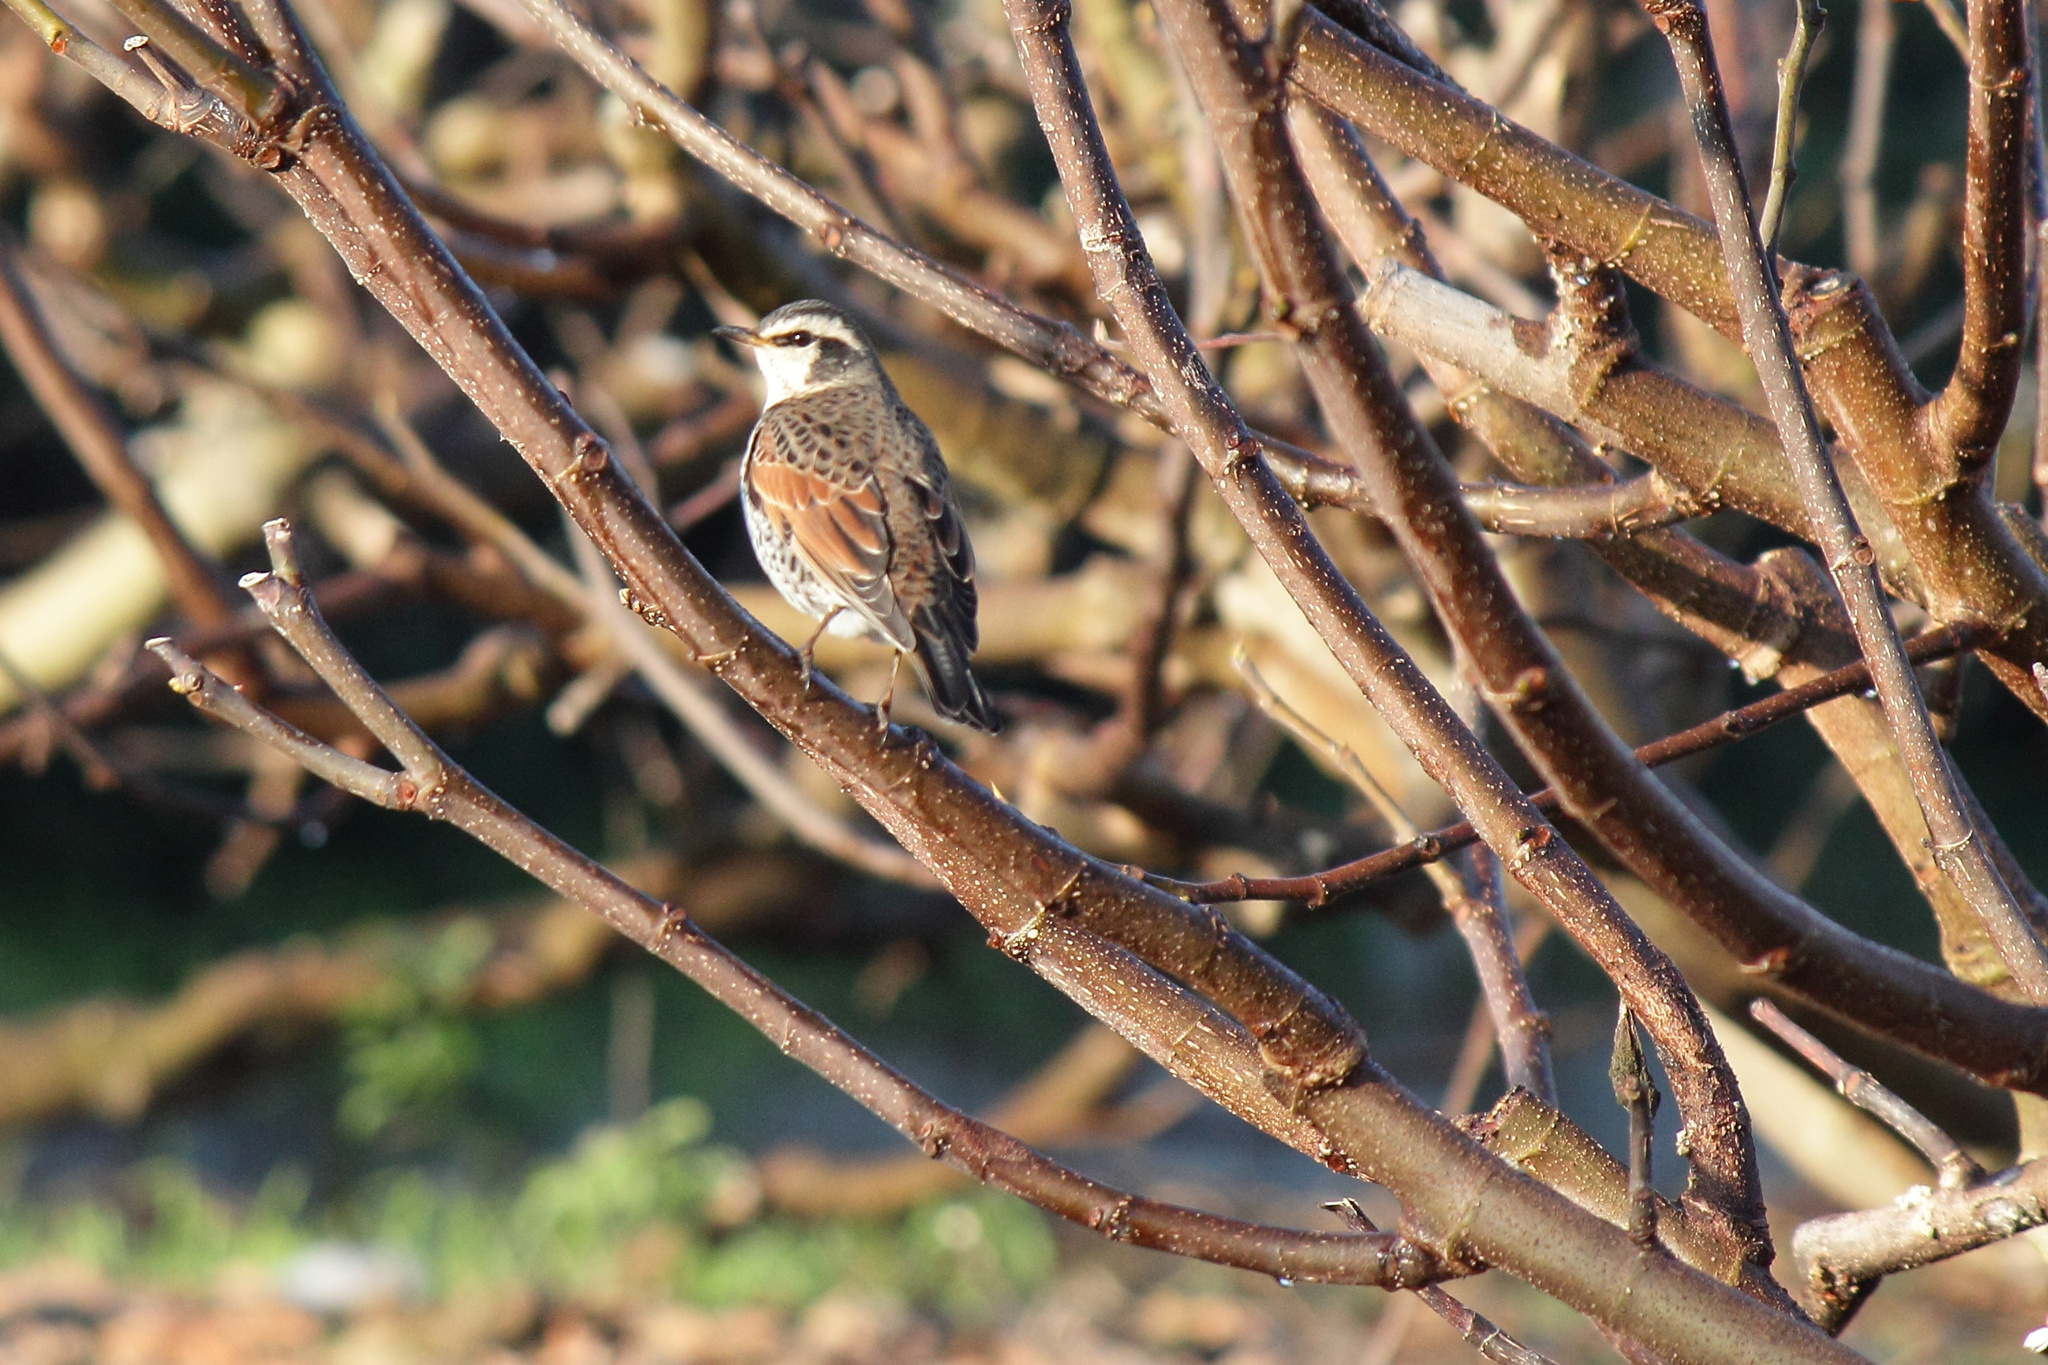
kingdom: Animalia
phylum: Chordata
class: Aves
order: Passeriformes
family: Turdidae
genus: Turdus
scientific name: Turdus eunomus
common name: Dusky thrush
